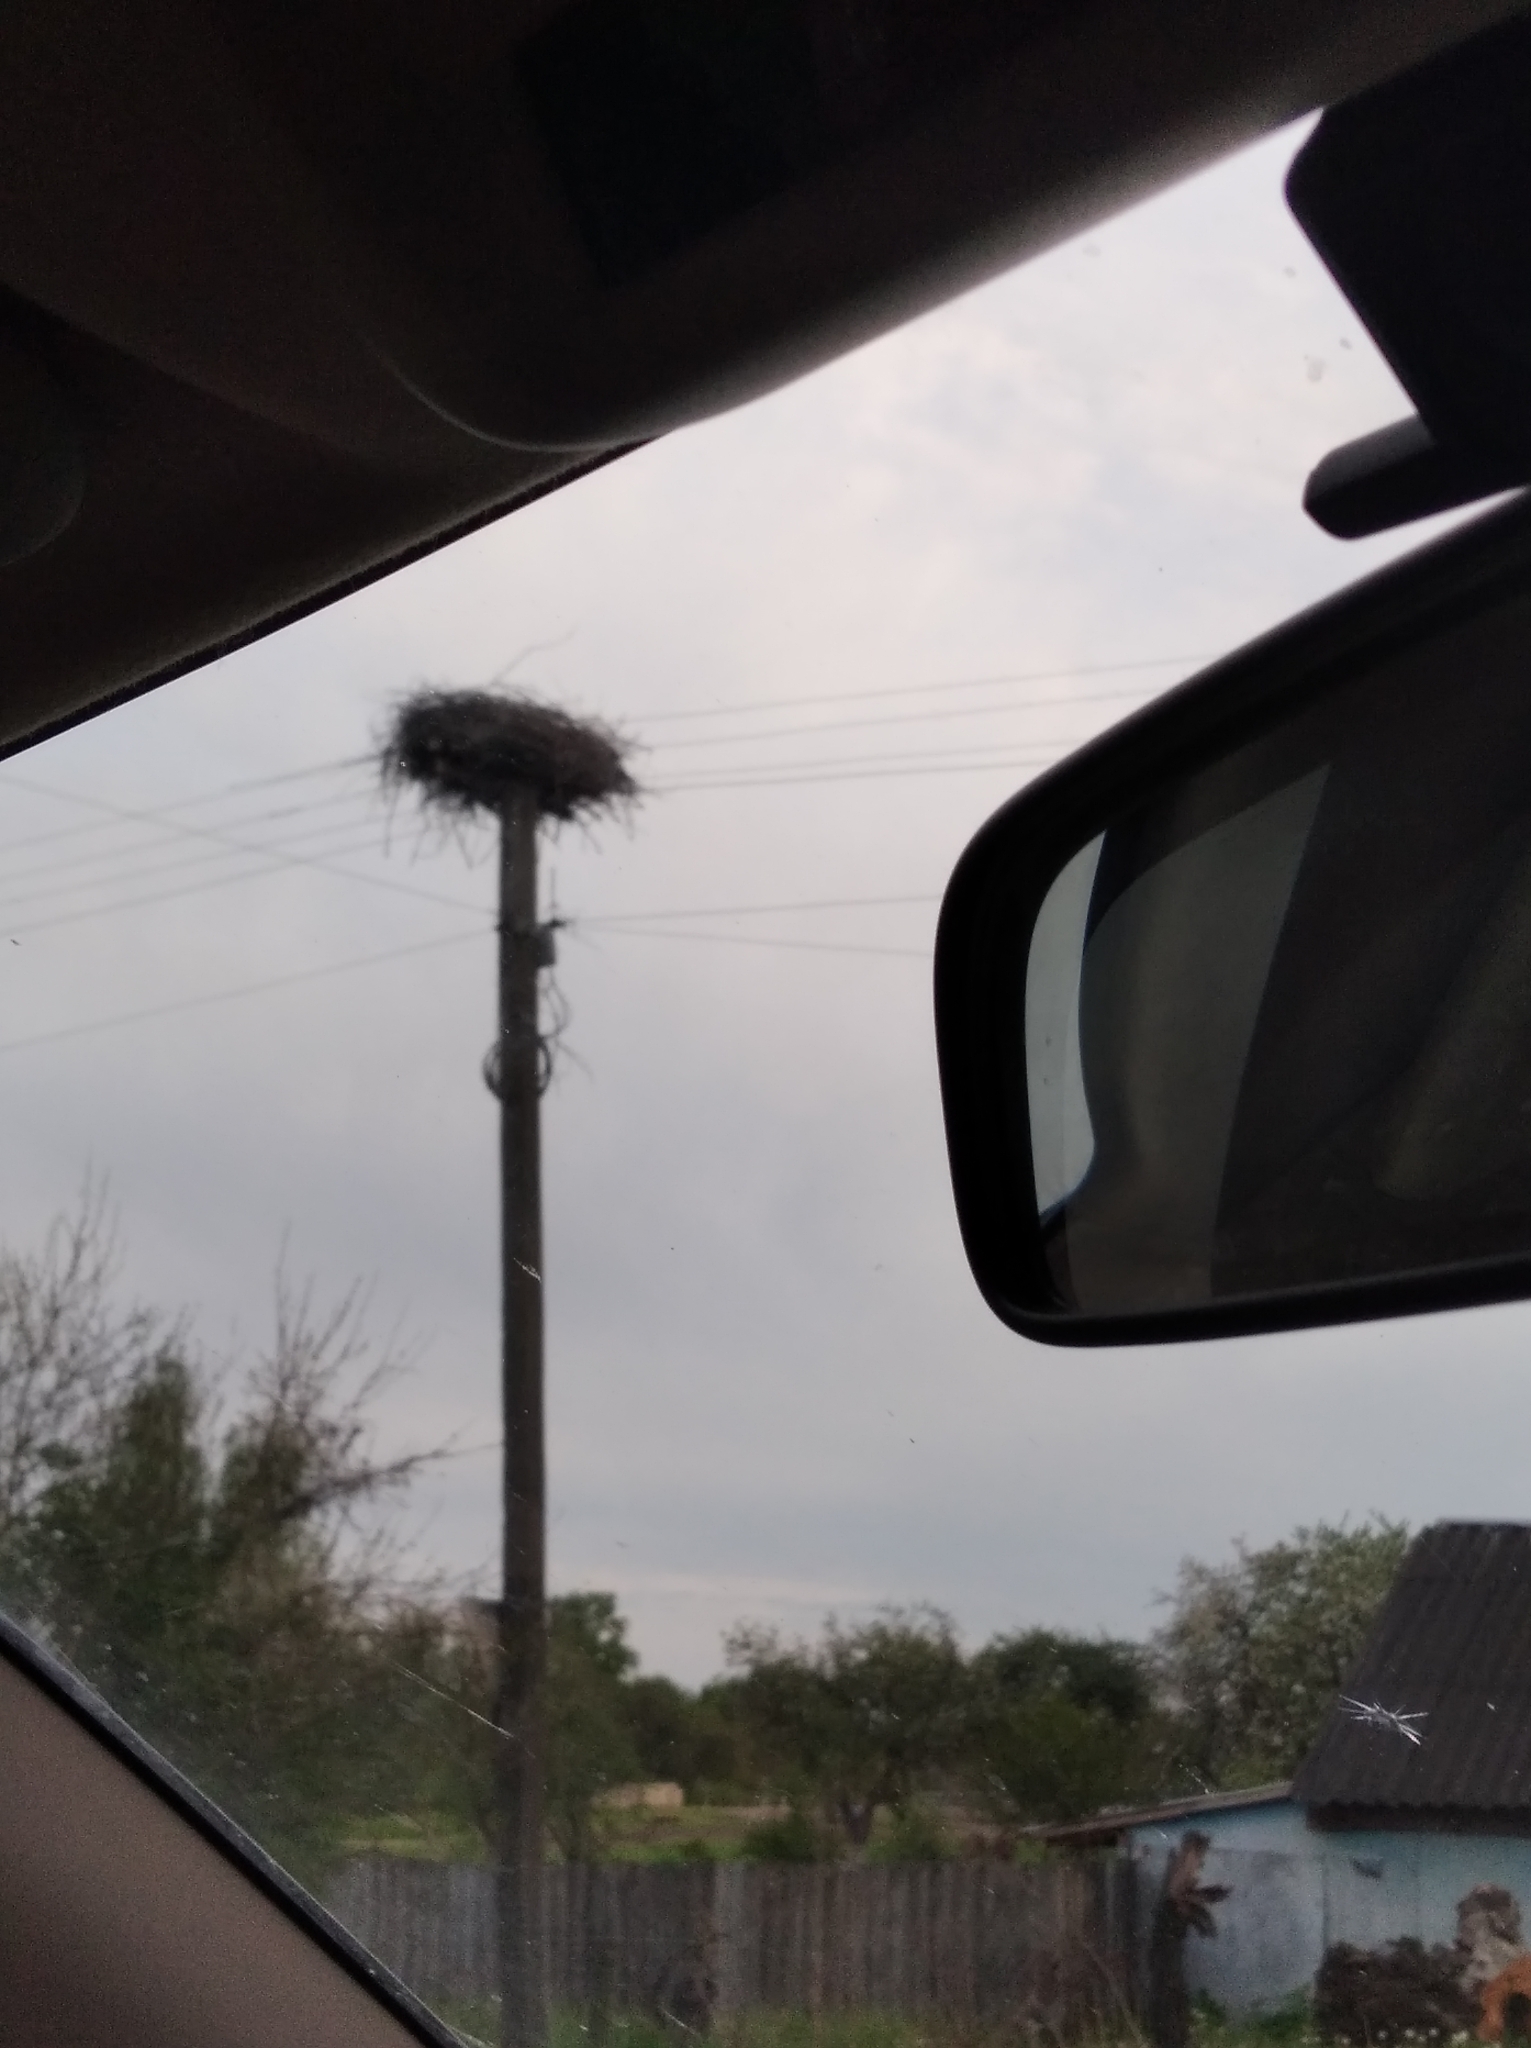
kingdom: Animalia
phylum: Chordata
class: Aves
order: Ciconiiformes
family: Ciconiidae
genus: Ciconia
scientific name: Ciconia ciconia
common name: White stork
